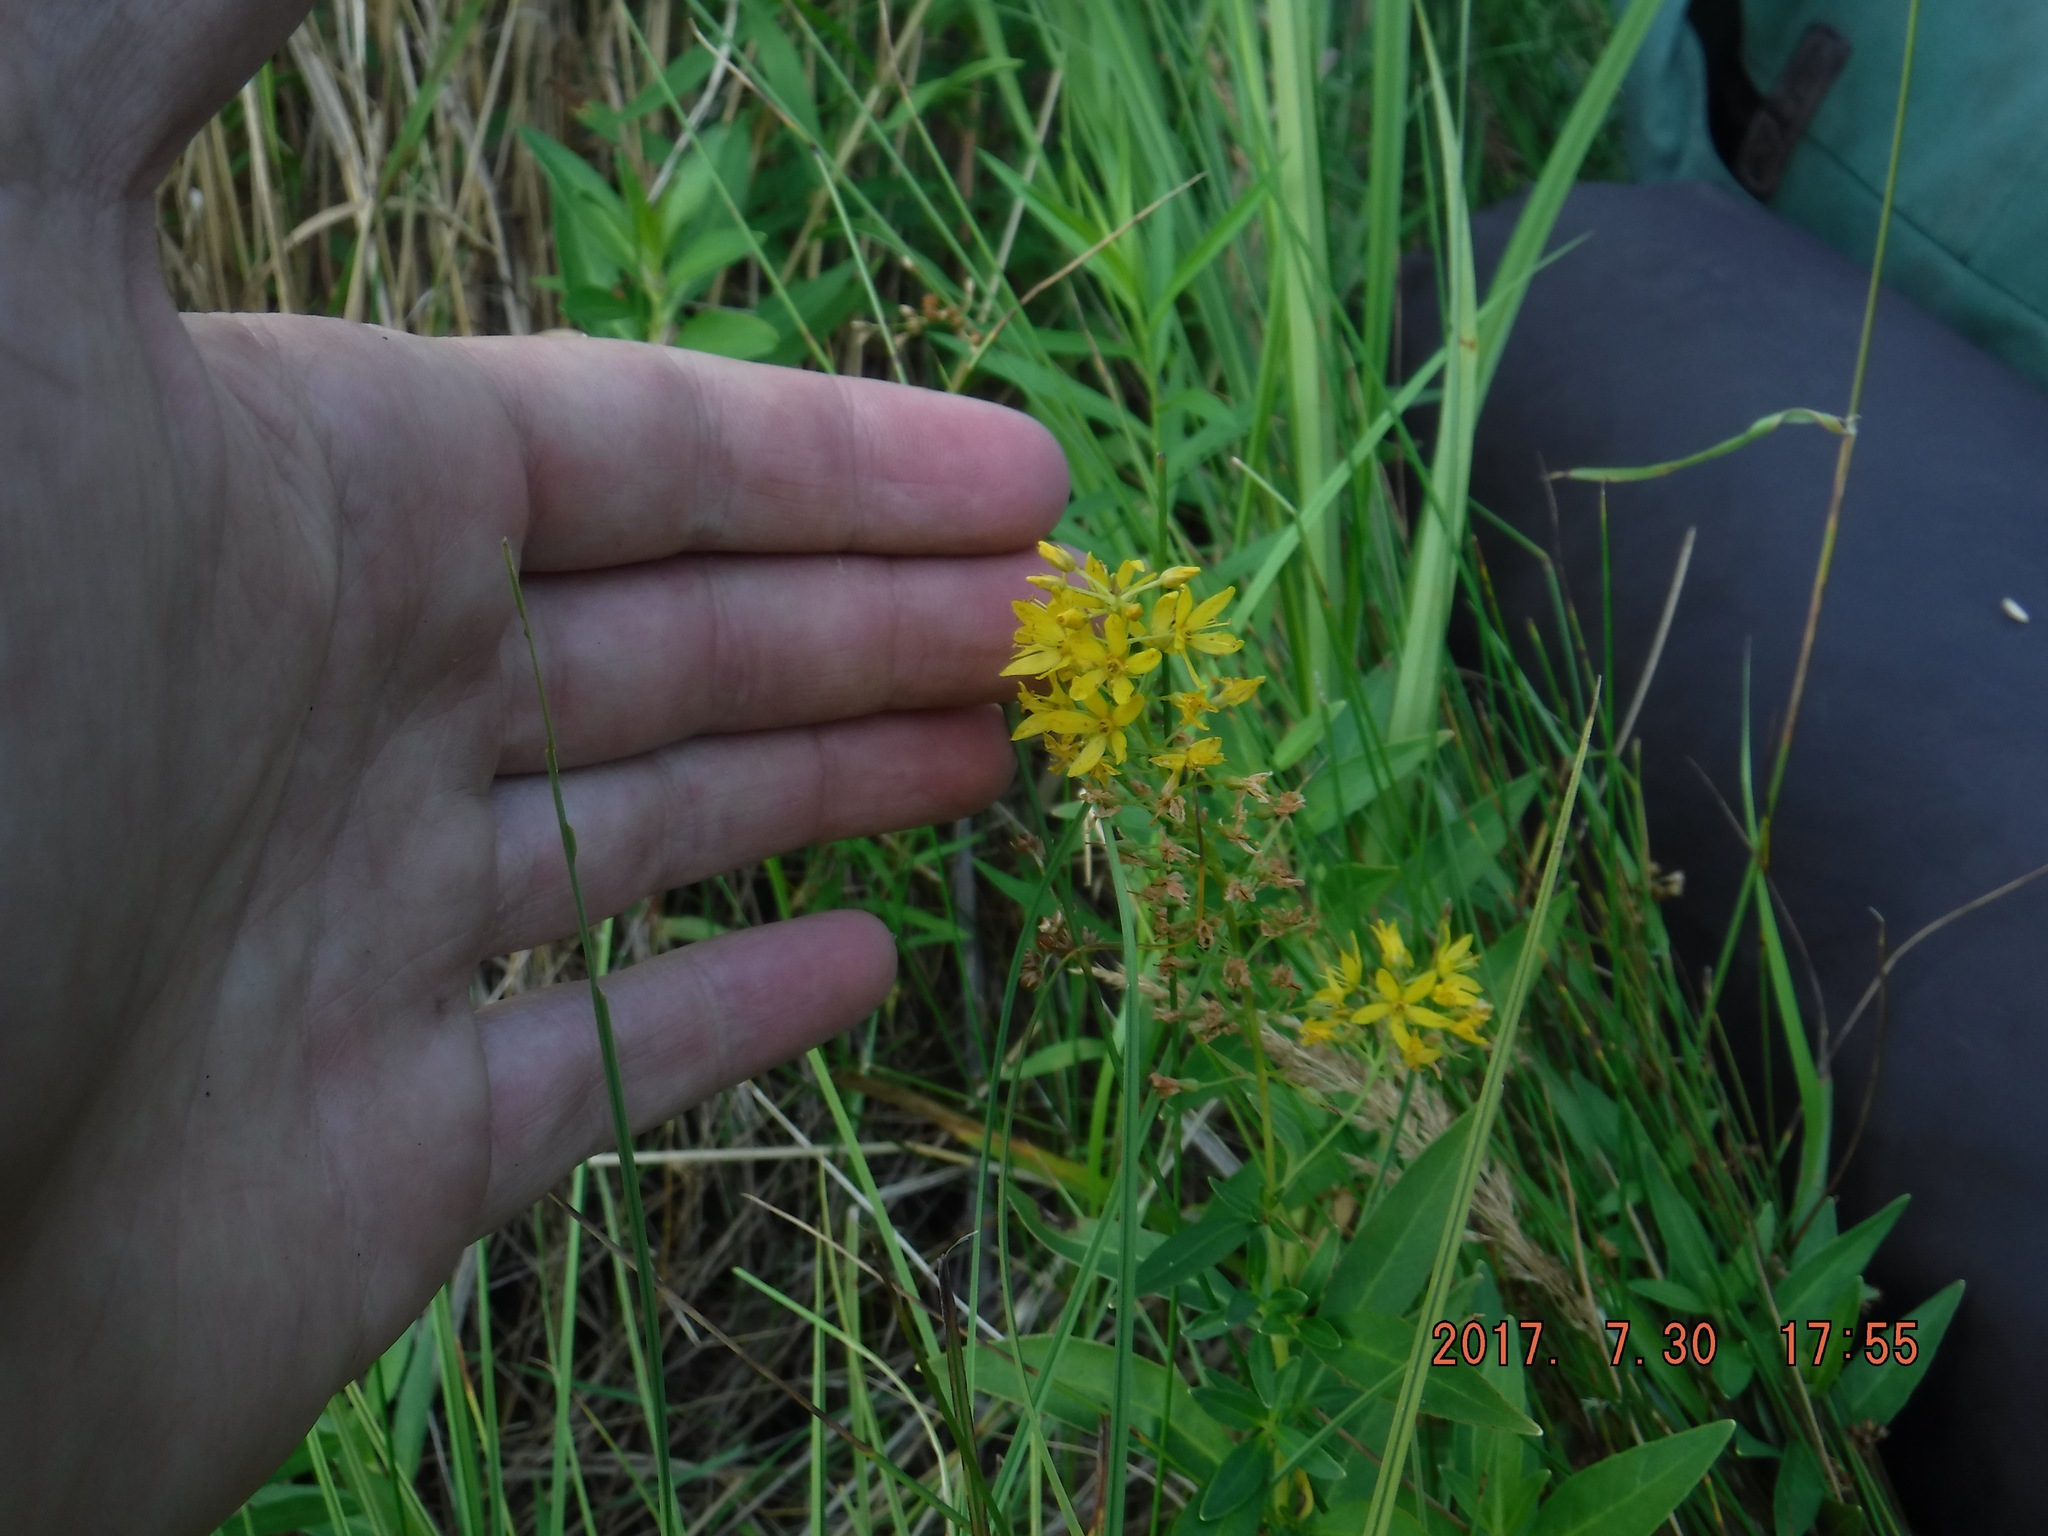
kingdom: Plantae
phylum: Tracheophyta
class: Magnoliopsida
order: Ericales
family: Primulaceae
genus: Lysimachia
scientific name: Lysimachia terrestris
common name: Lake loosestrife
